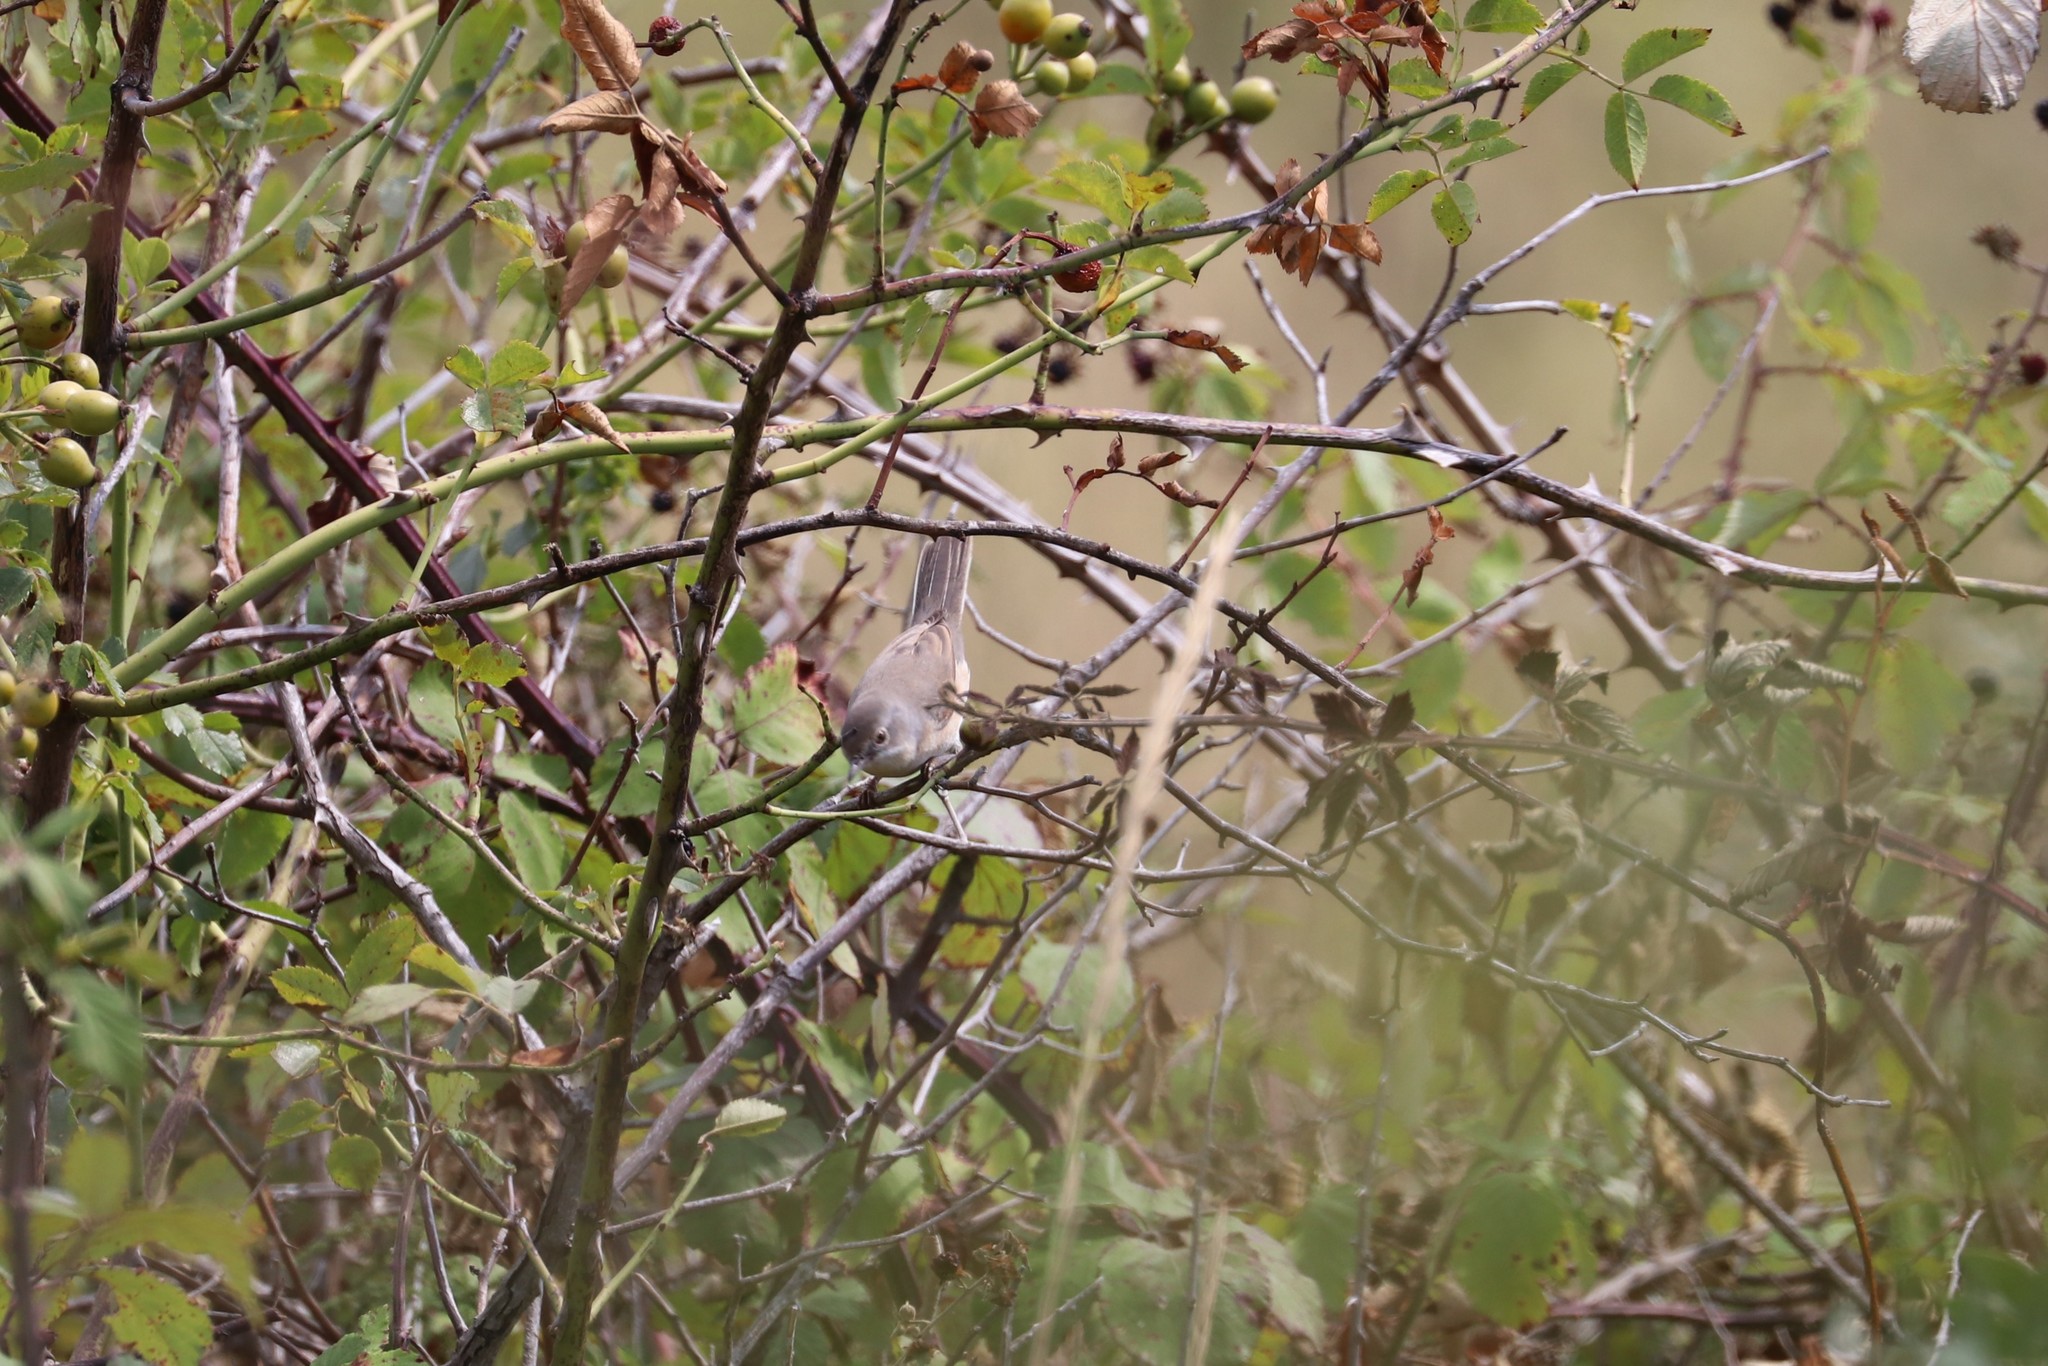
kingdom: Animalia
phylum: Chordata
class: Aves
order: Passeriformes
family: Sylviidae
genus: Curruca
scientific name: Curruca iberiae
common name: Western subalpine warbler
